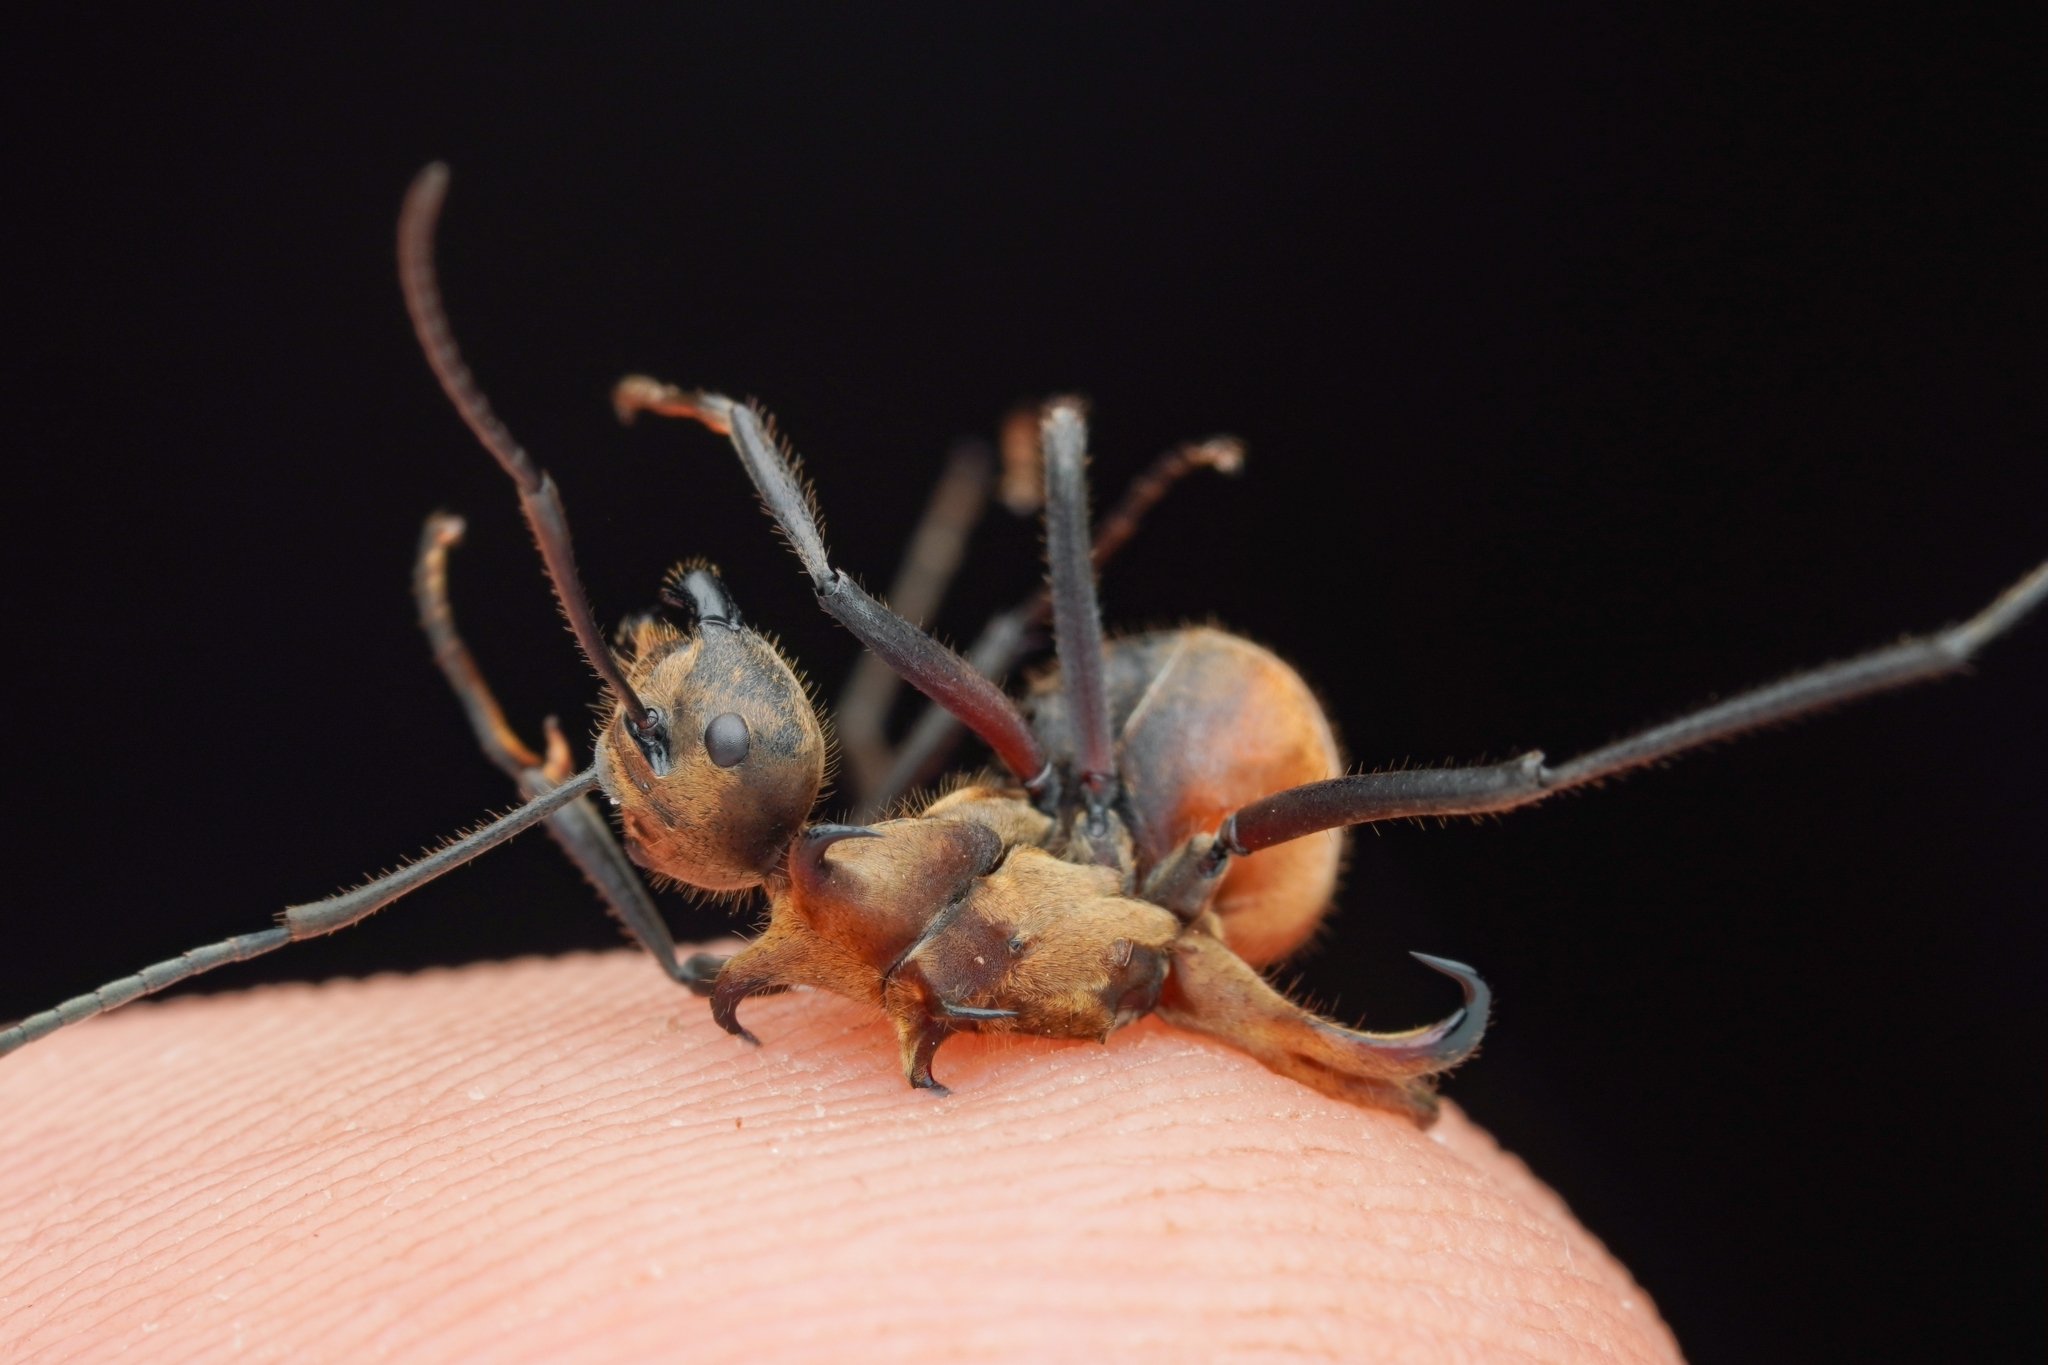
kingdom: Animalia
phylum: Arthropoda
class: Insecta
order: Hymenoptera
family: Formicidae
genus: Polyrhachis
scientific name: Polyrhachis bihamata
